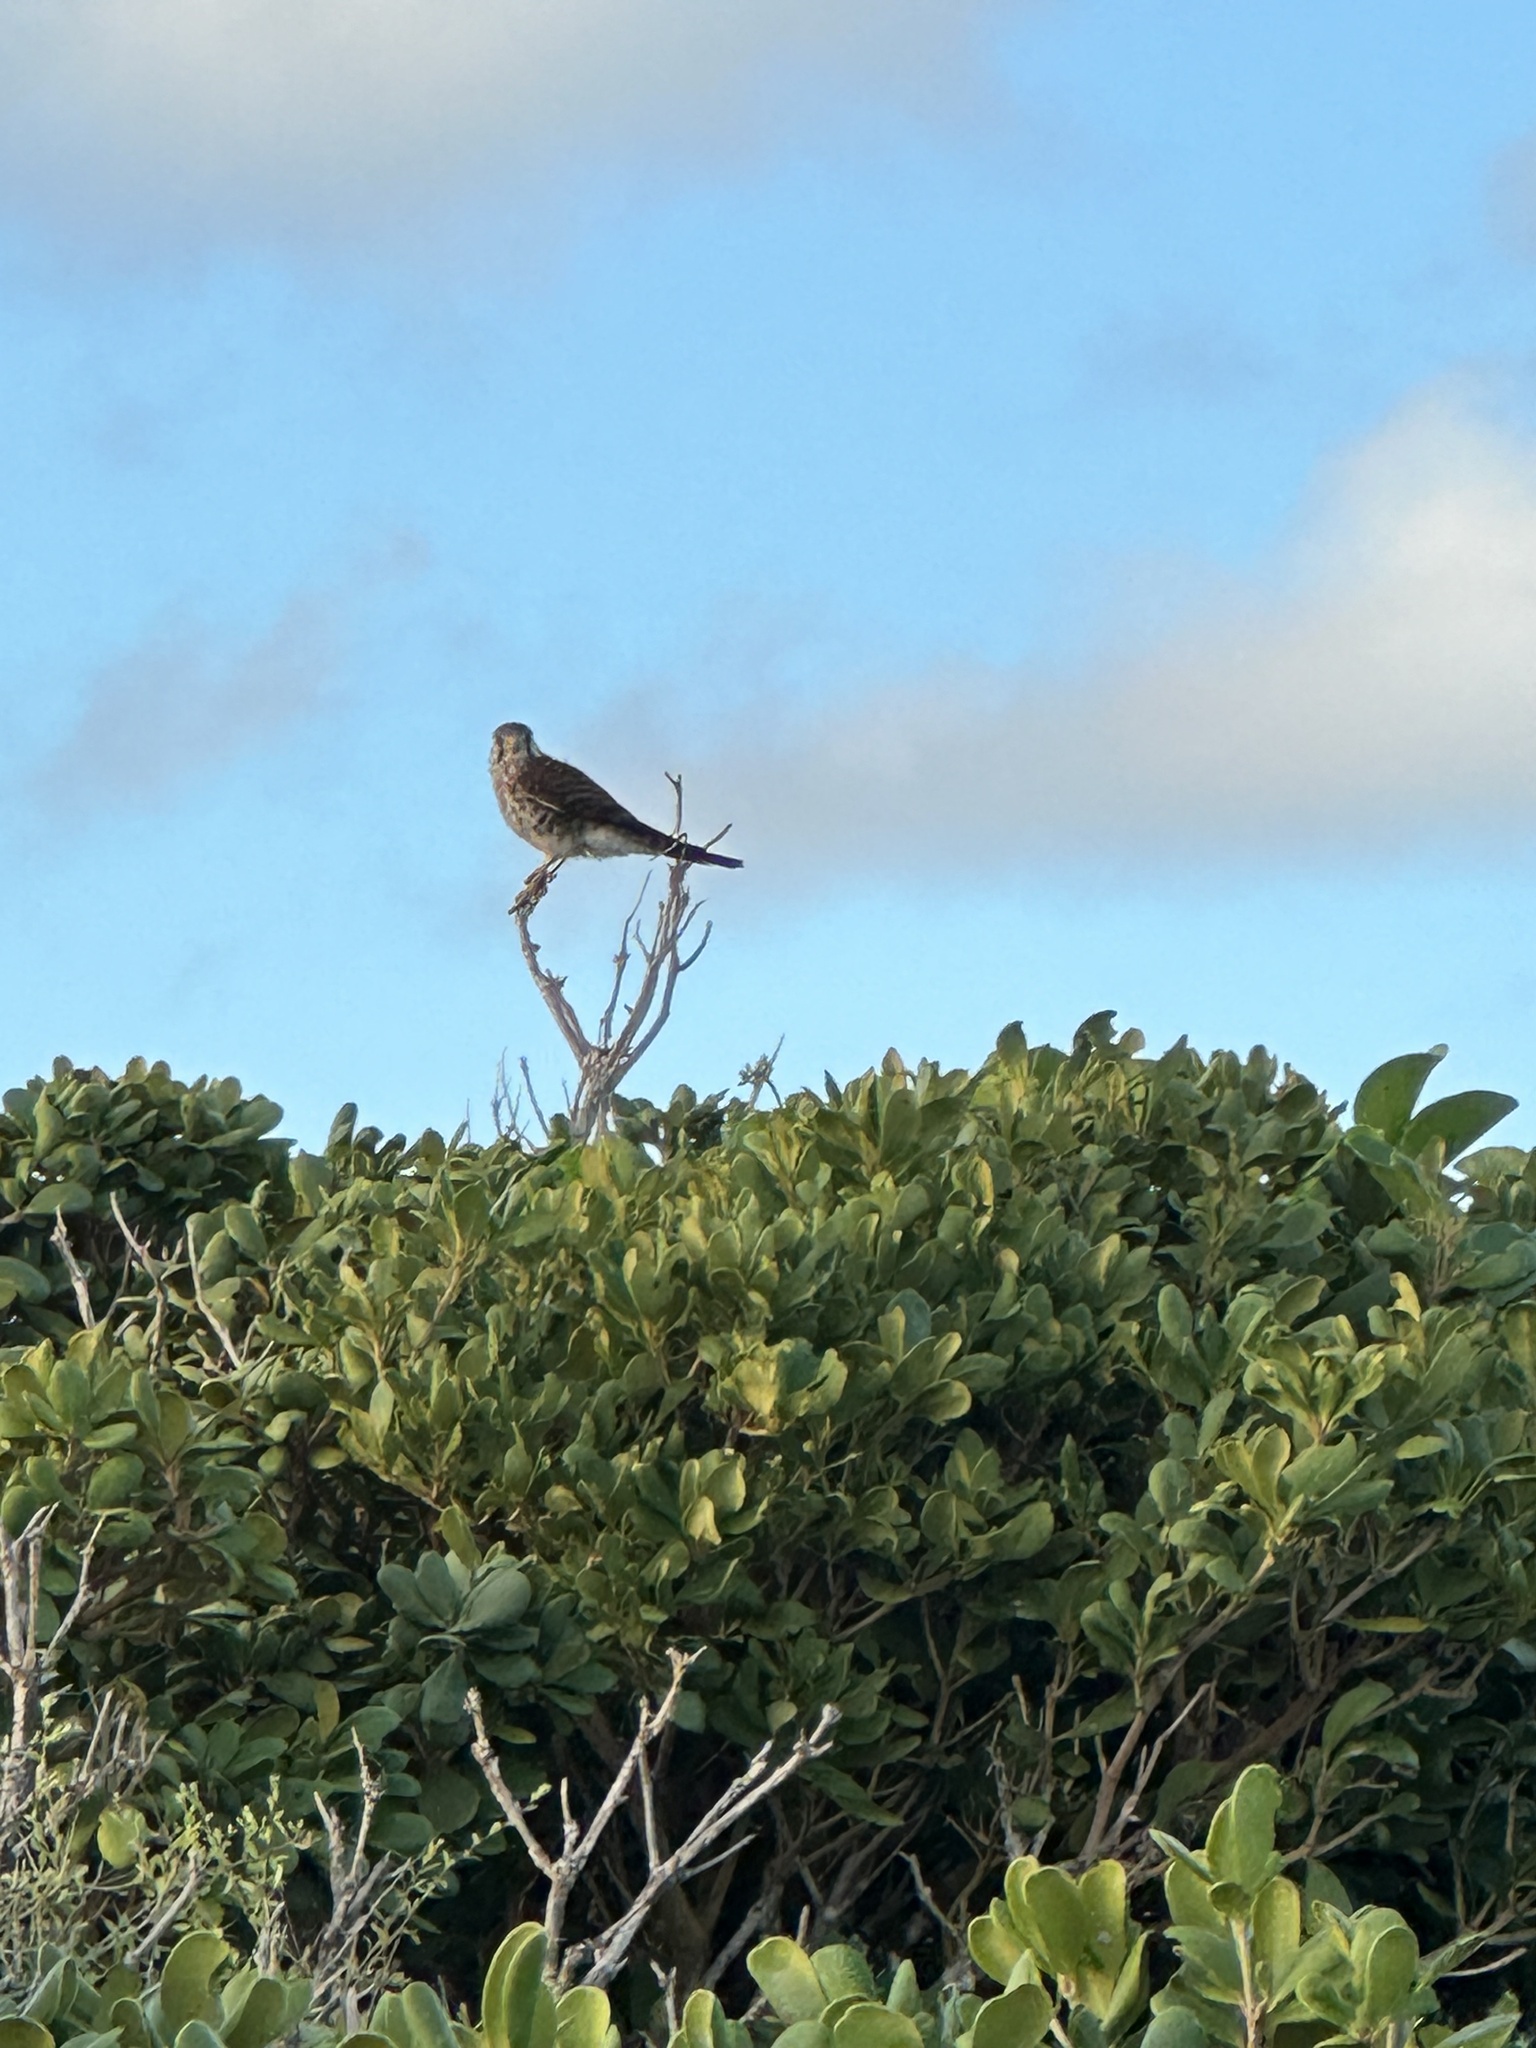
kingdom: Animalia
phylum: Chordata
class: Aves
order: Falconiformes
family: Falconidae
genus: Falco
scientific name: Falco sparverius
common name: American kestrel
